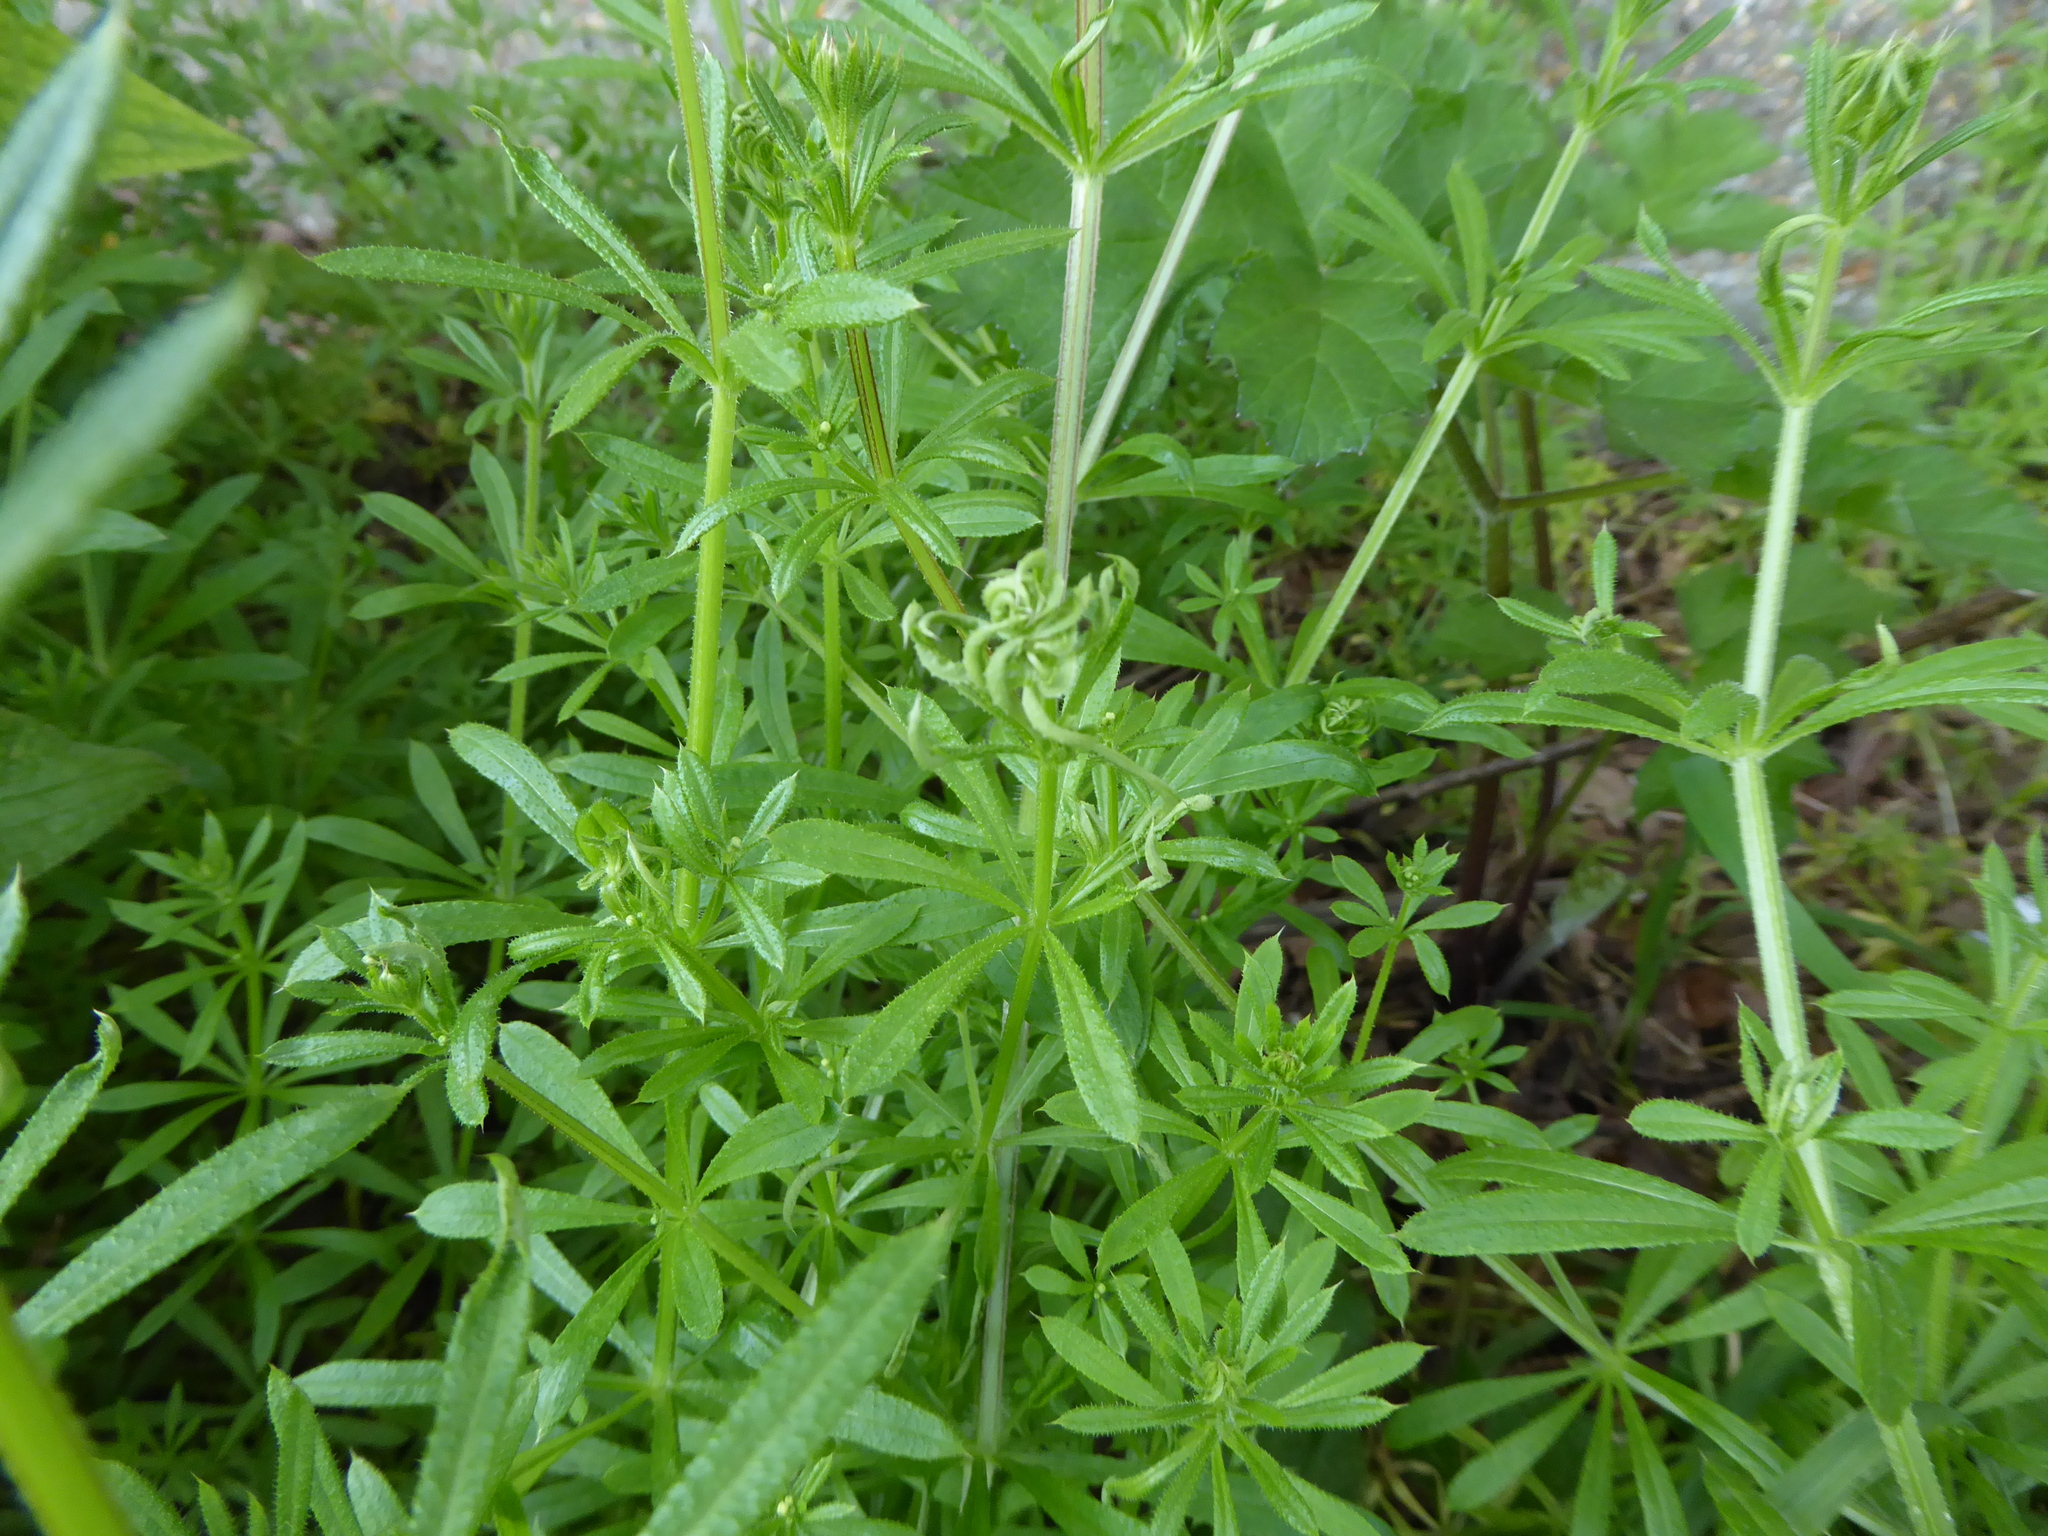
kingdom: Plantae
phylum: Tracheophyta
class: Magnoliopsida
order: Gentianales
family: Rubiaceae
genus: Galium
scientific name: Galium aparine
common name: Cleavers
